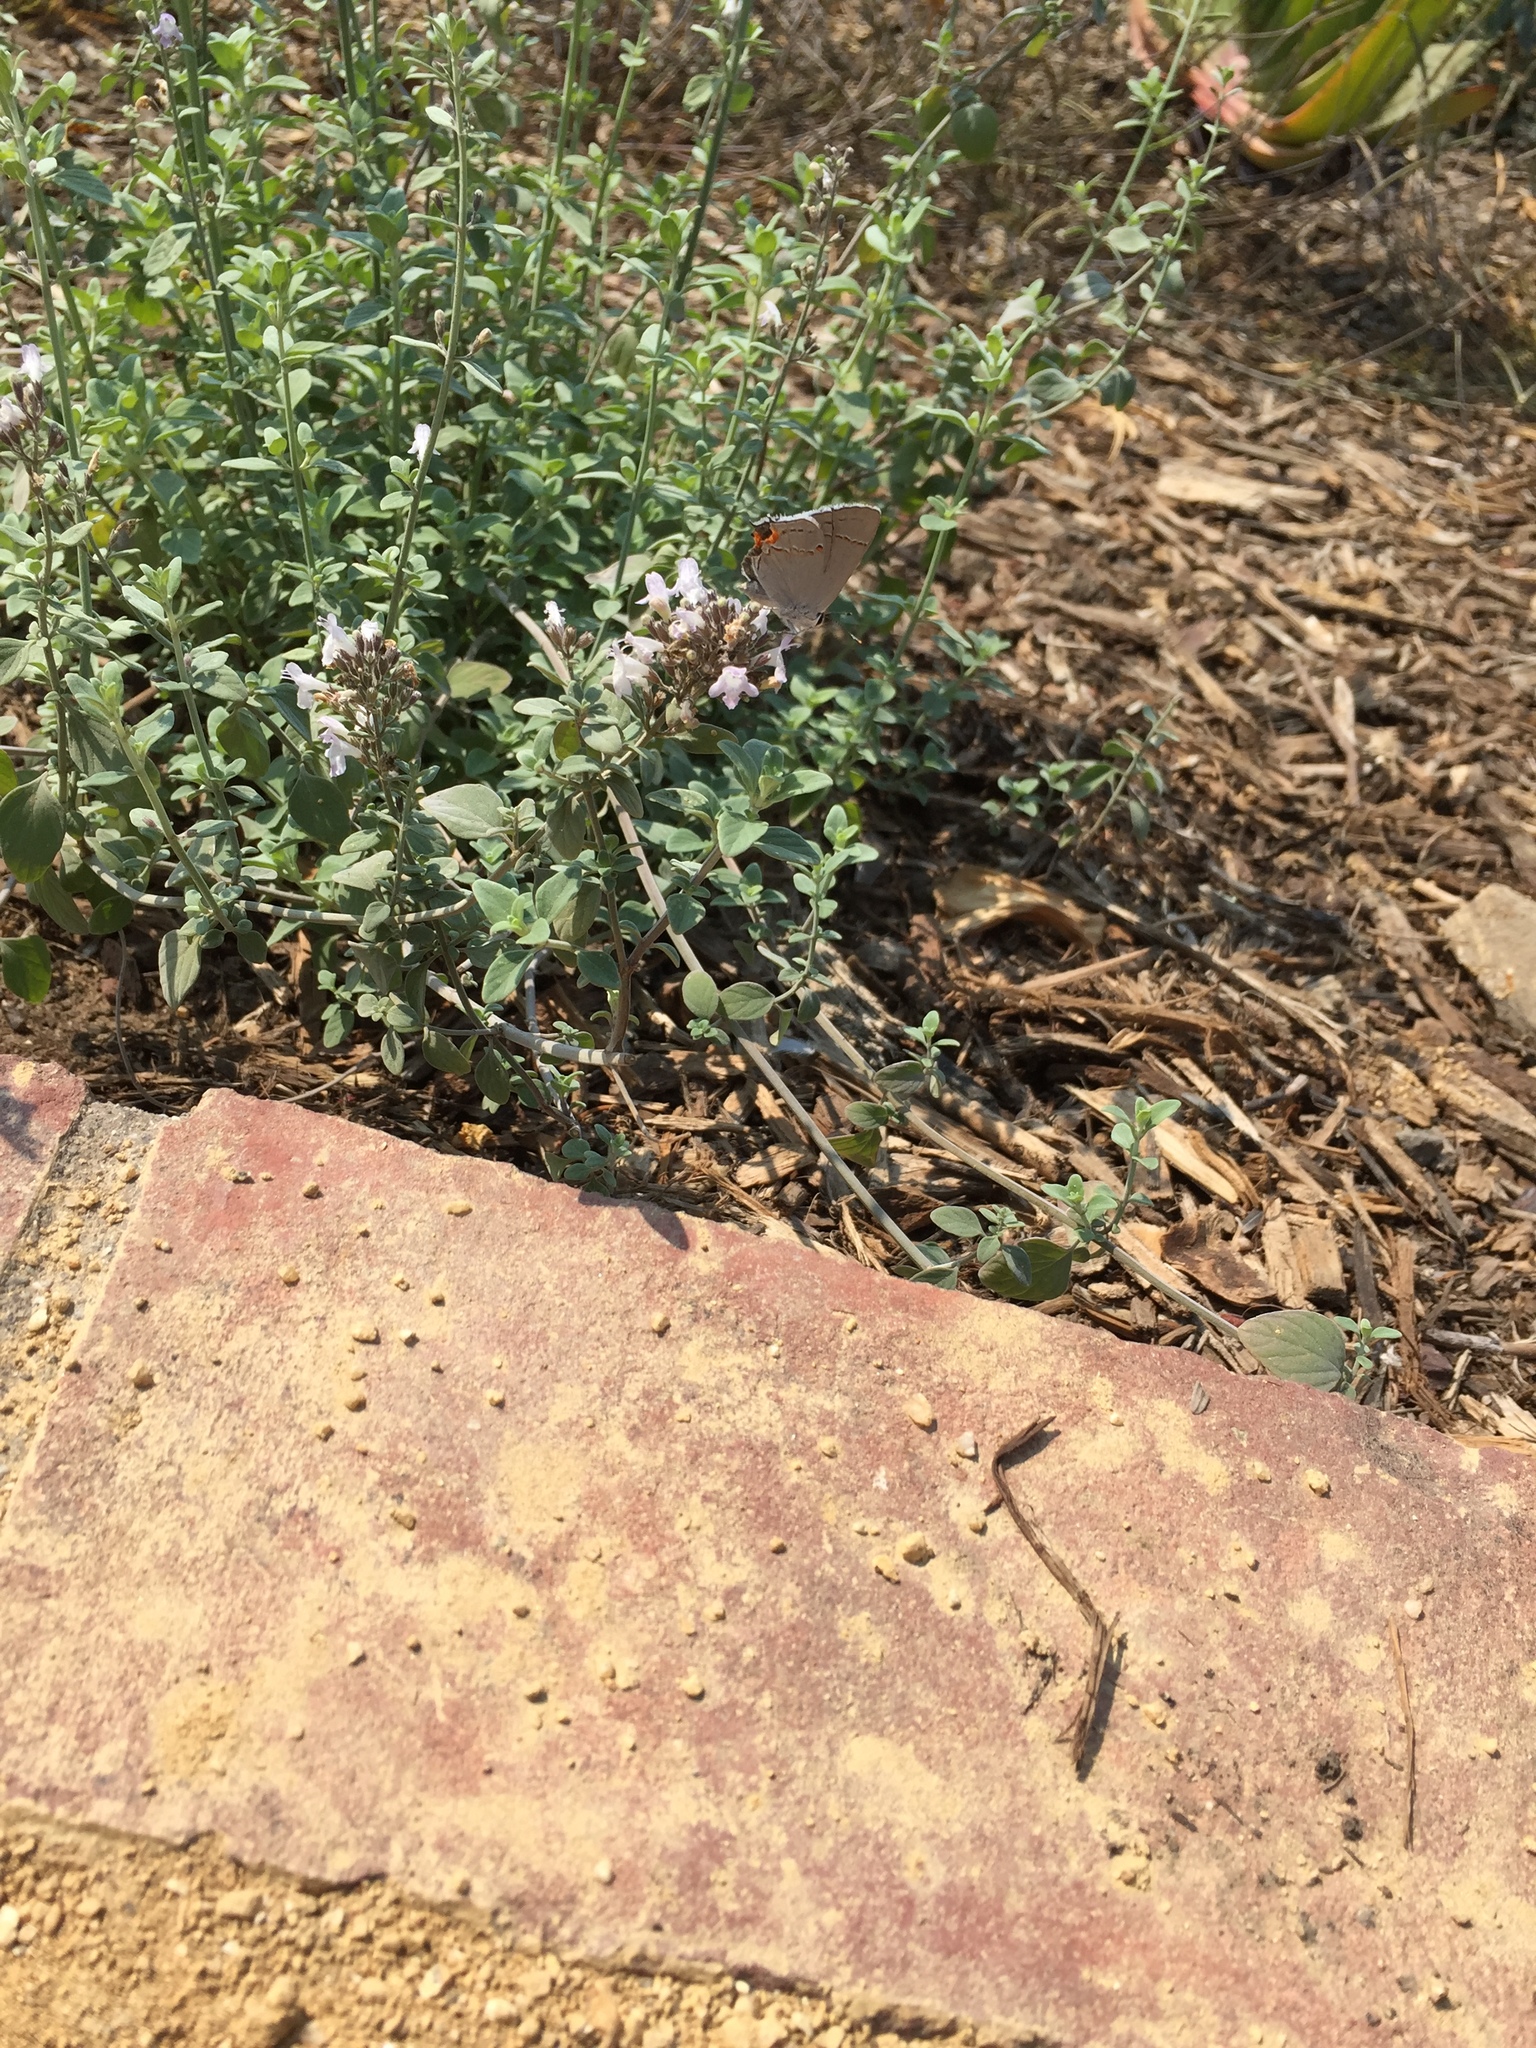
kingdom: Animalia
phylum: Arthropoda
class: Insecta
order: Lepidoptera
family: Lycaenidae
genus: Strymon
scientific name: Strymon melinus
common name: Gray hairstreak
